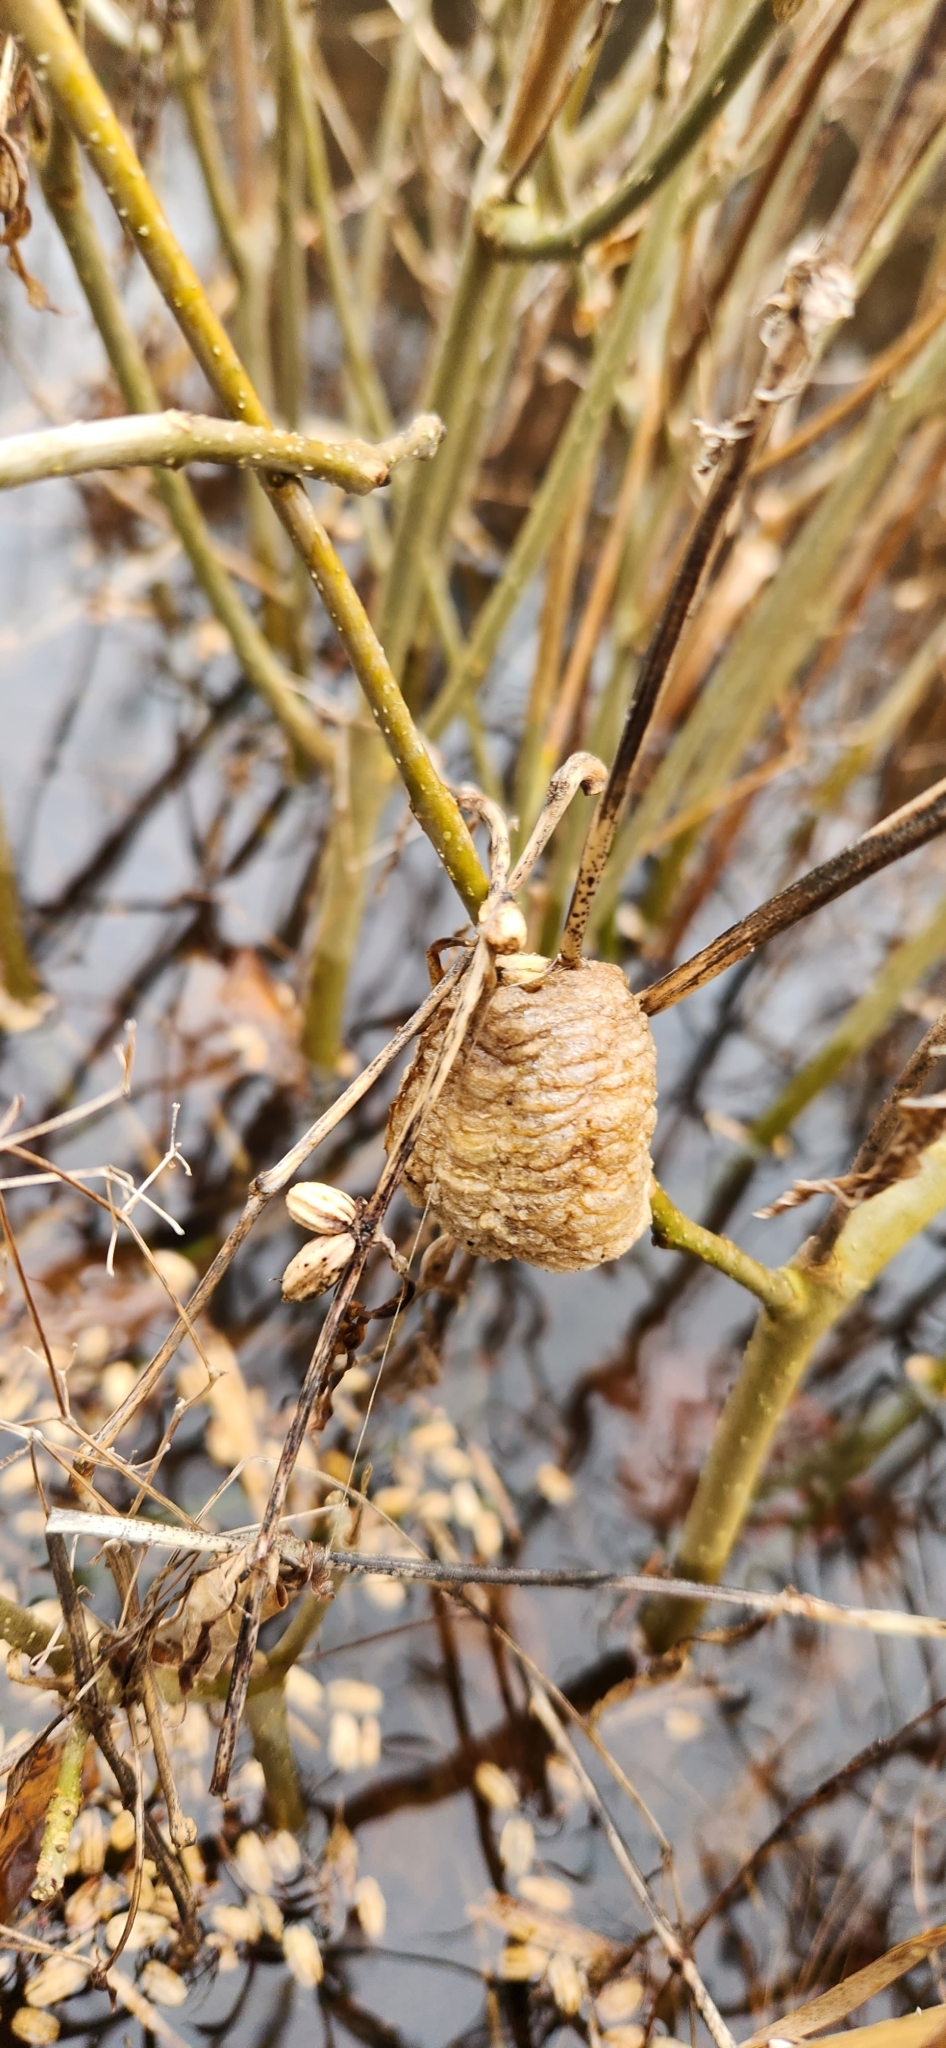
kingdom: Animalia
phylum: Arthropoda
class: Insecta
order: Mantodea
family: Mantidae
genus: Tenodera
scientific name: Tenodera sinensis
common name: Chinese mantis
